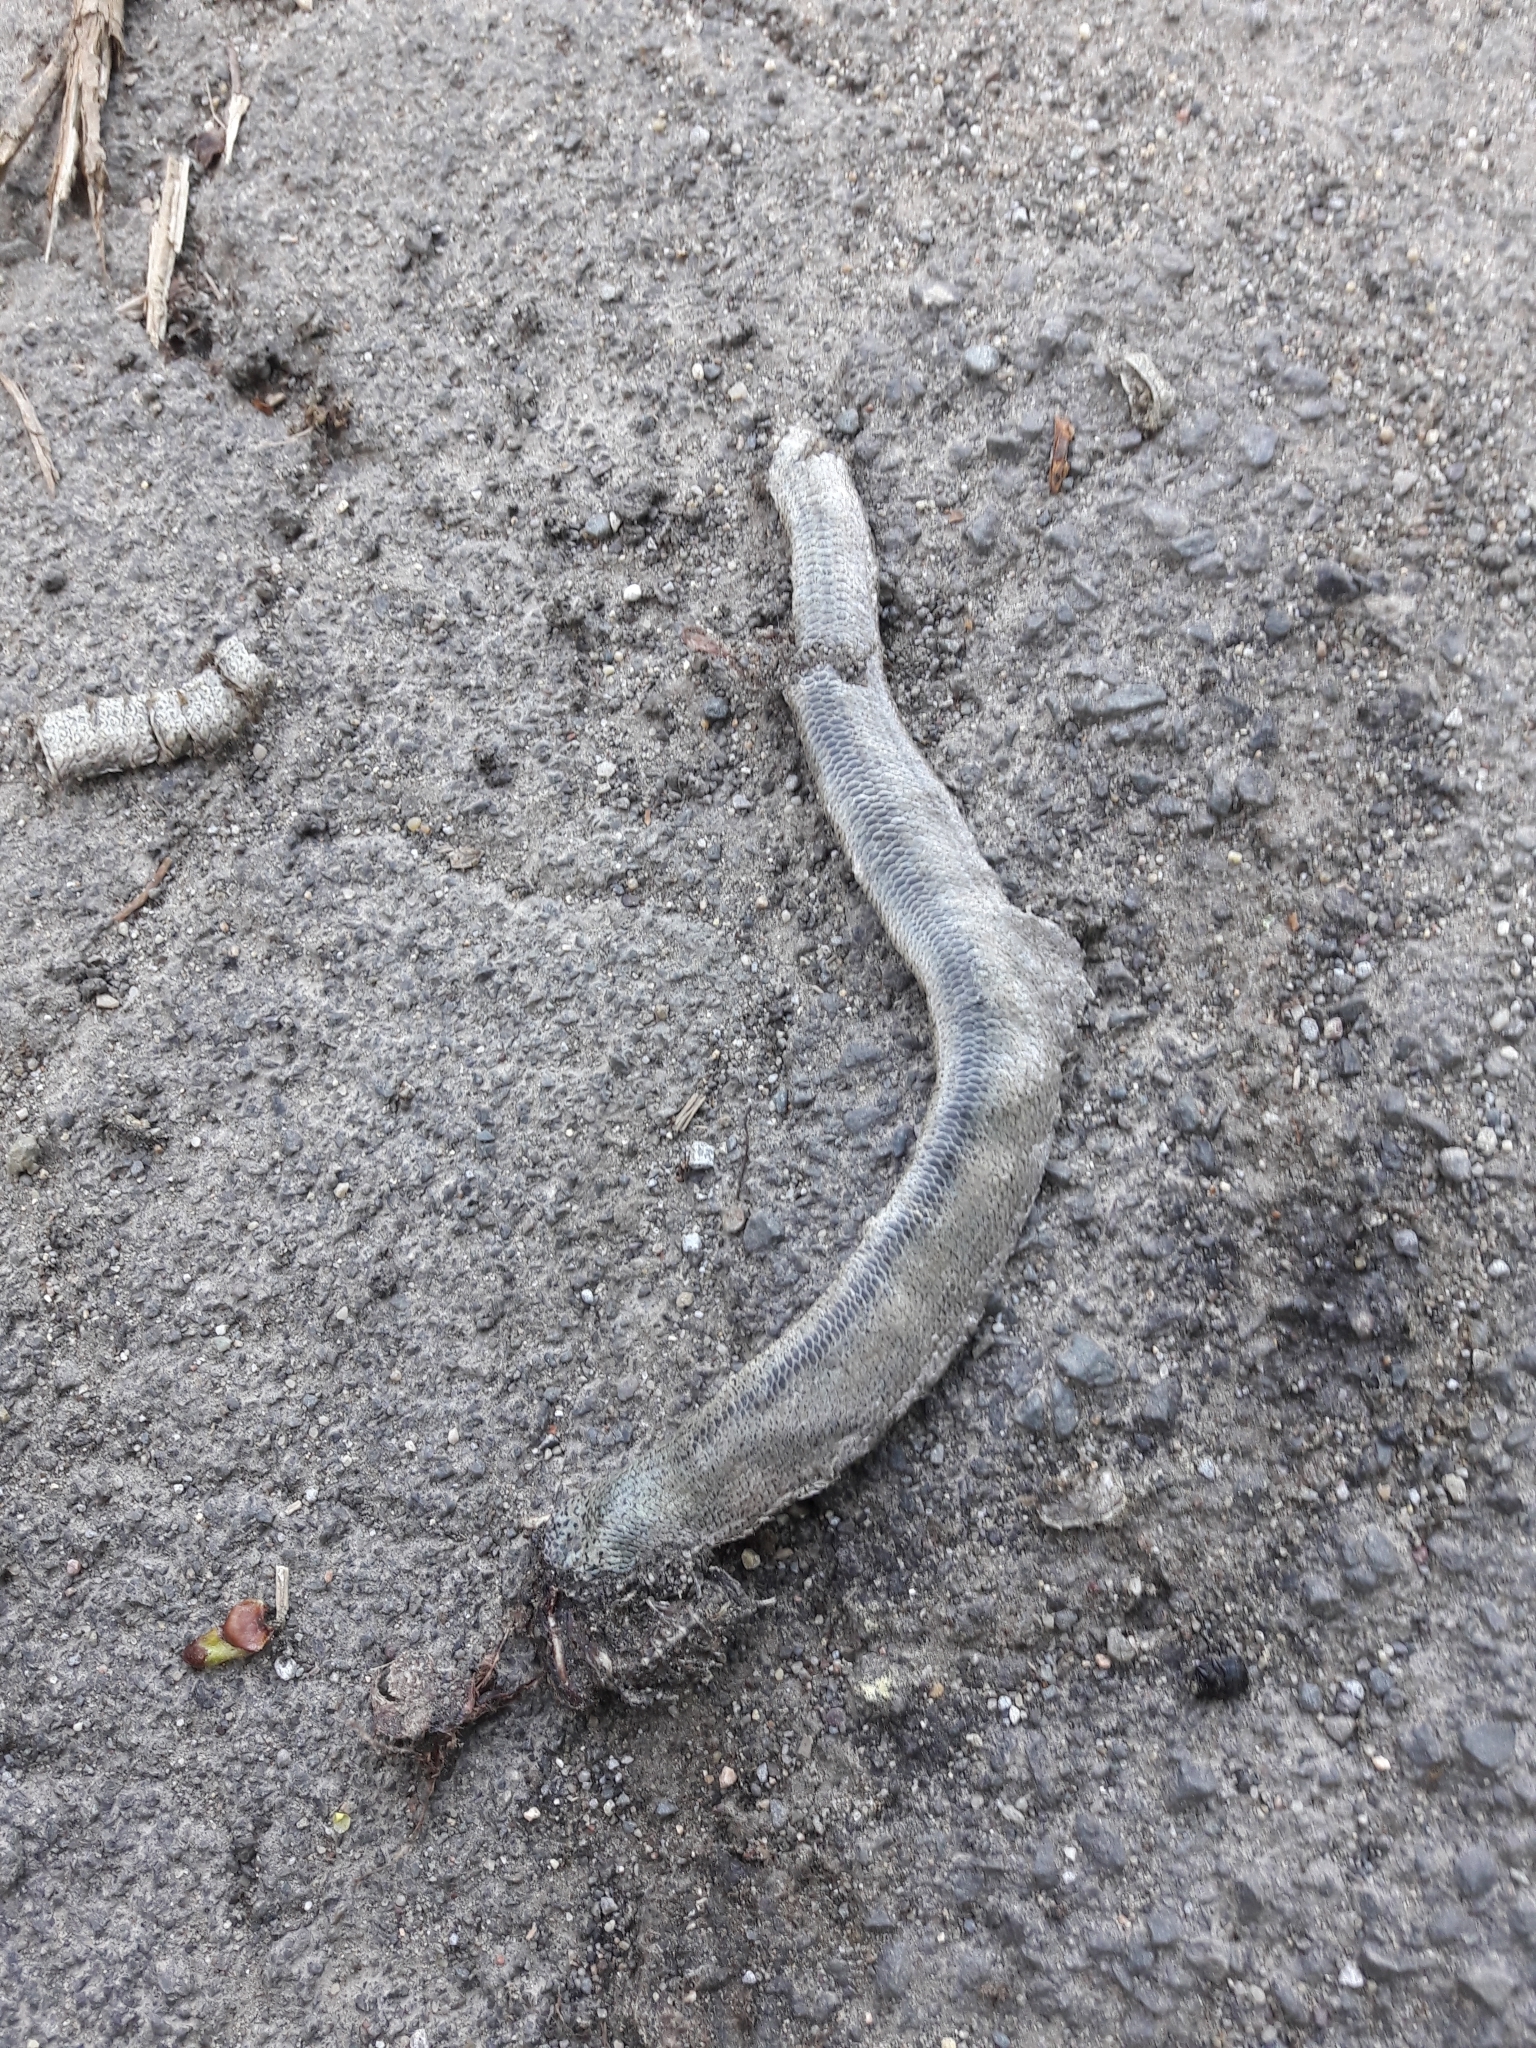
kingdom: Animalia
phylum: Chordata
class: Squamata
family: Anguidae
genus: Anguis
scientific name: Anguis fragilis
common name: Slow worm
